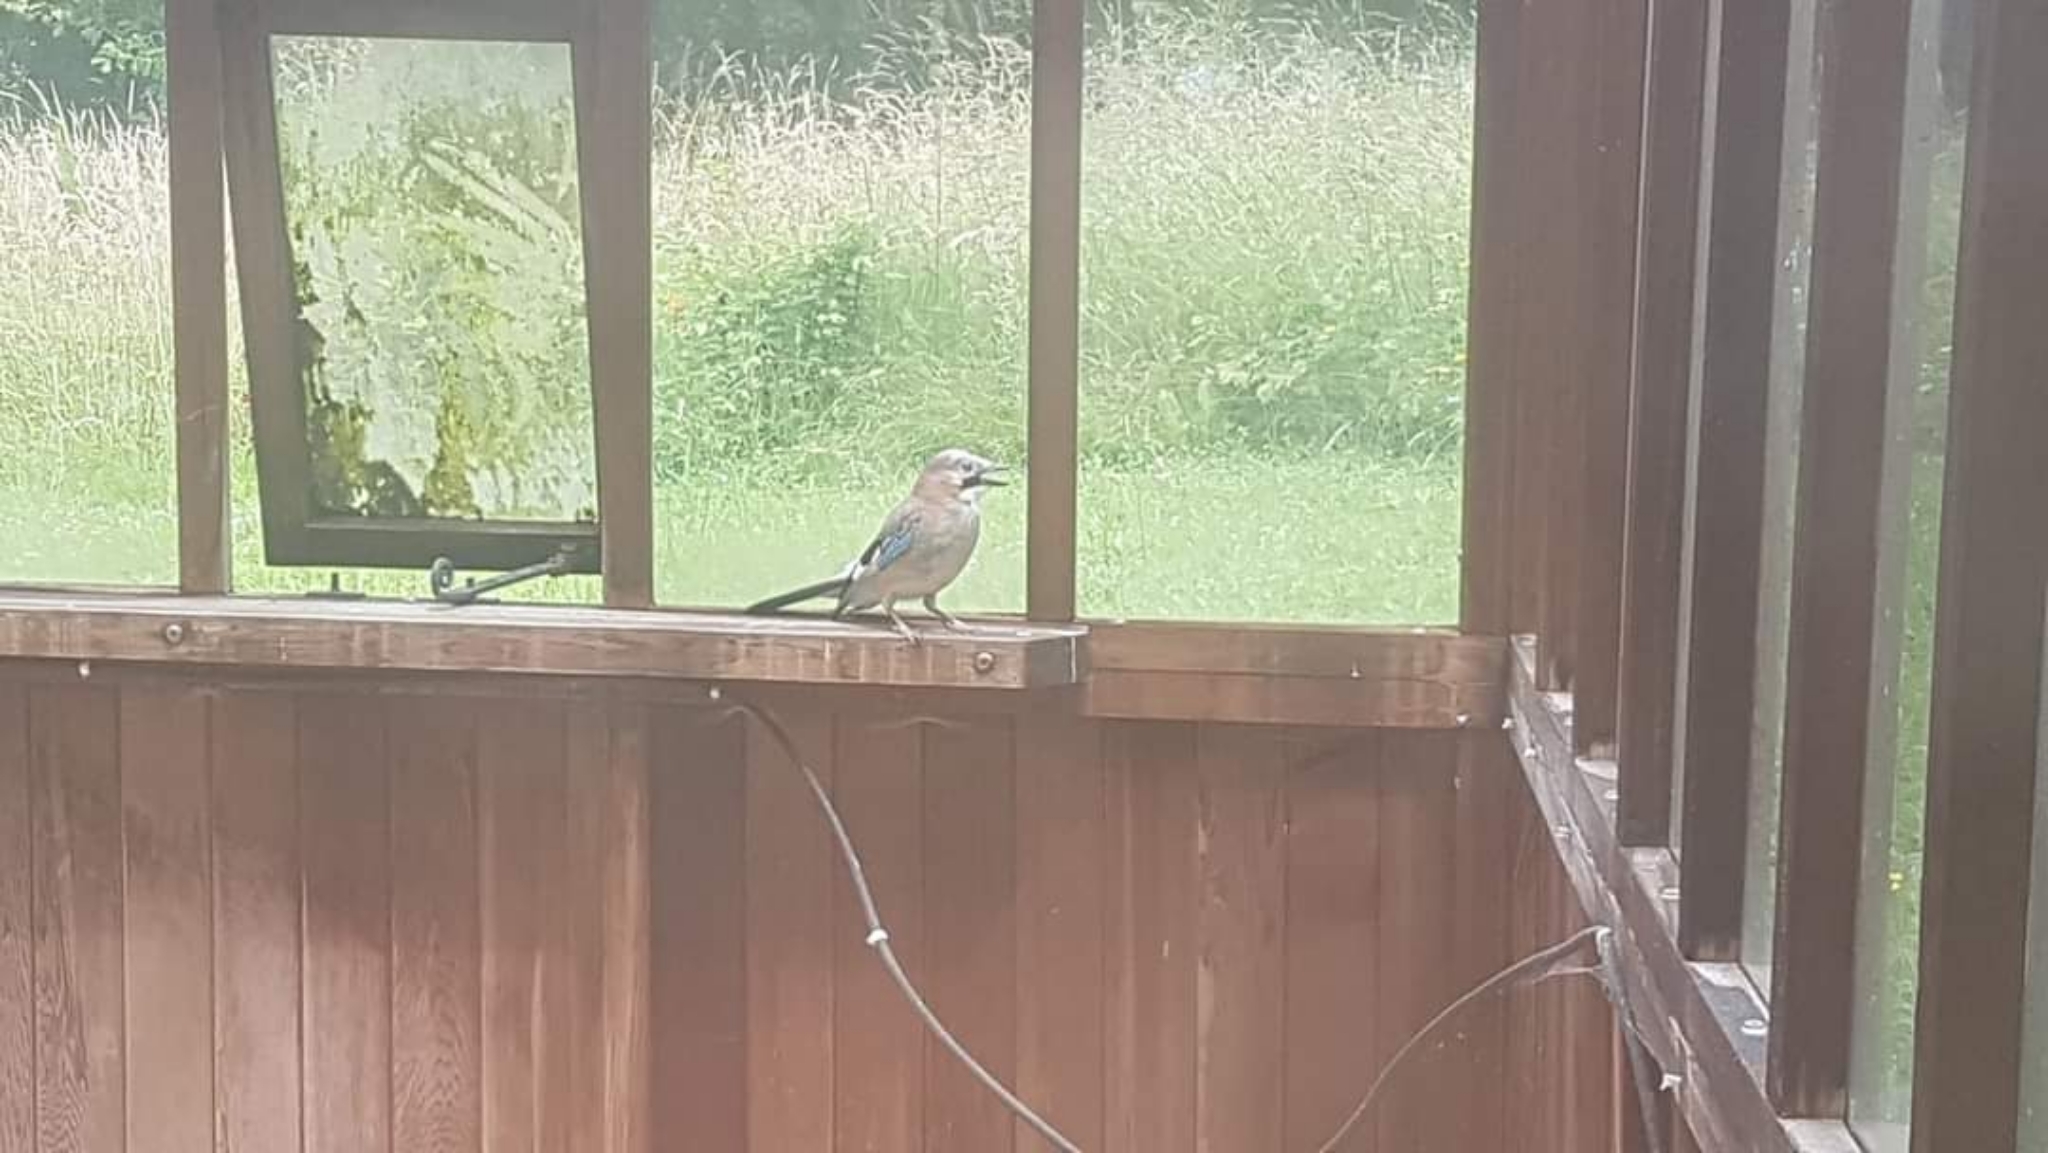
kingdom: Animalia
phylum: Chordata
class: Aves
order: Passeriformes
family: Corvidae
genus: Garrulus
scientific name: Garrulus glandarius
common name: Eurasian jay
